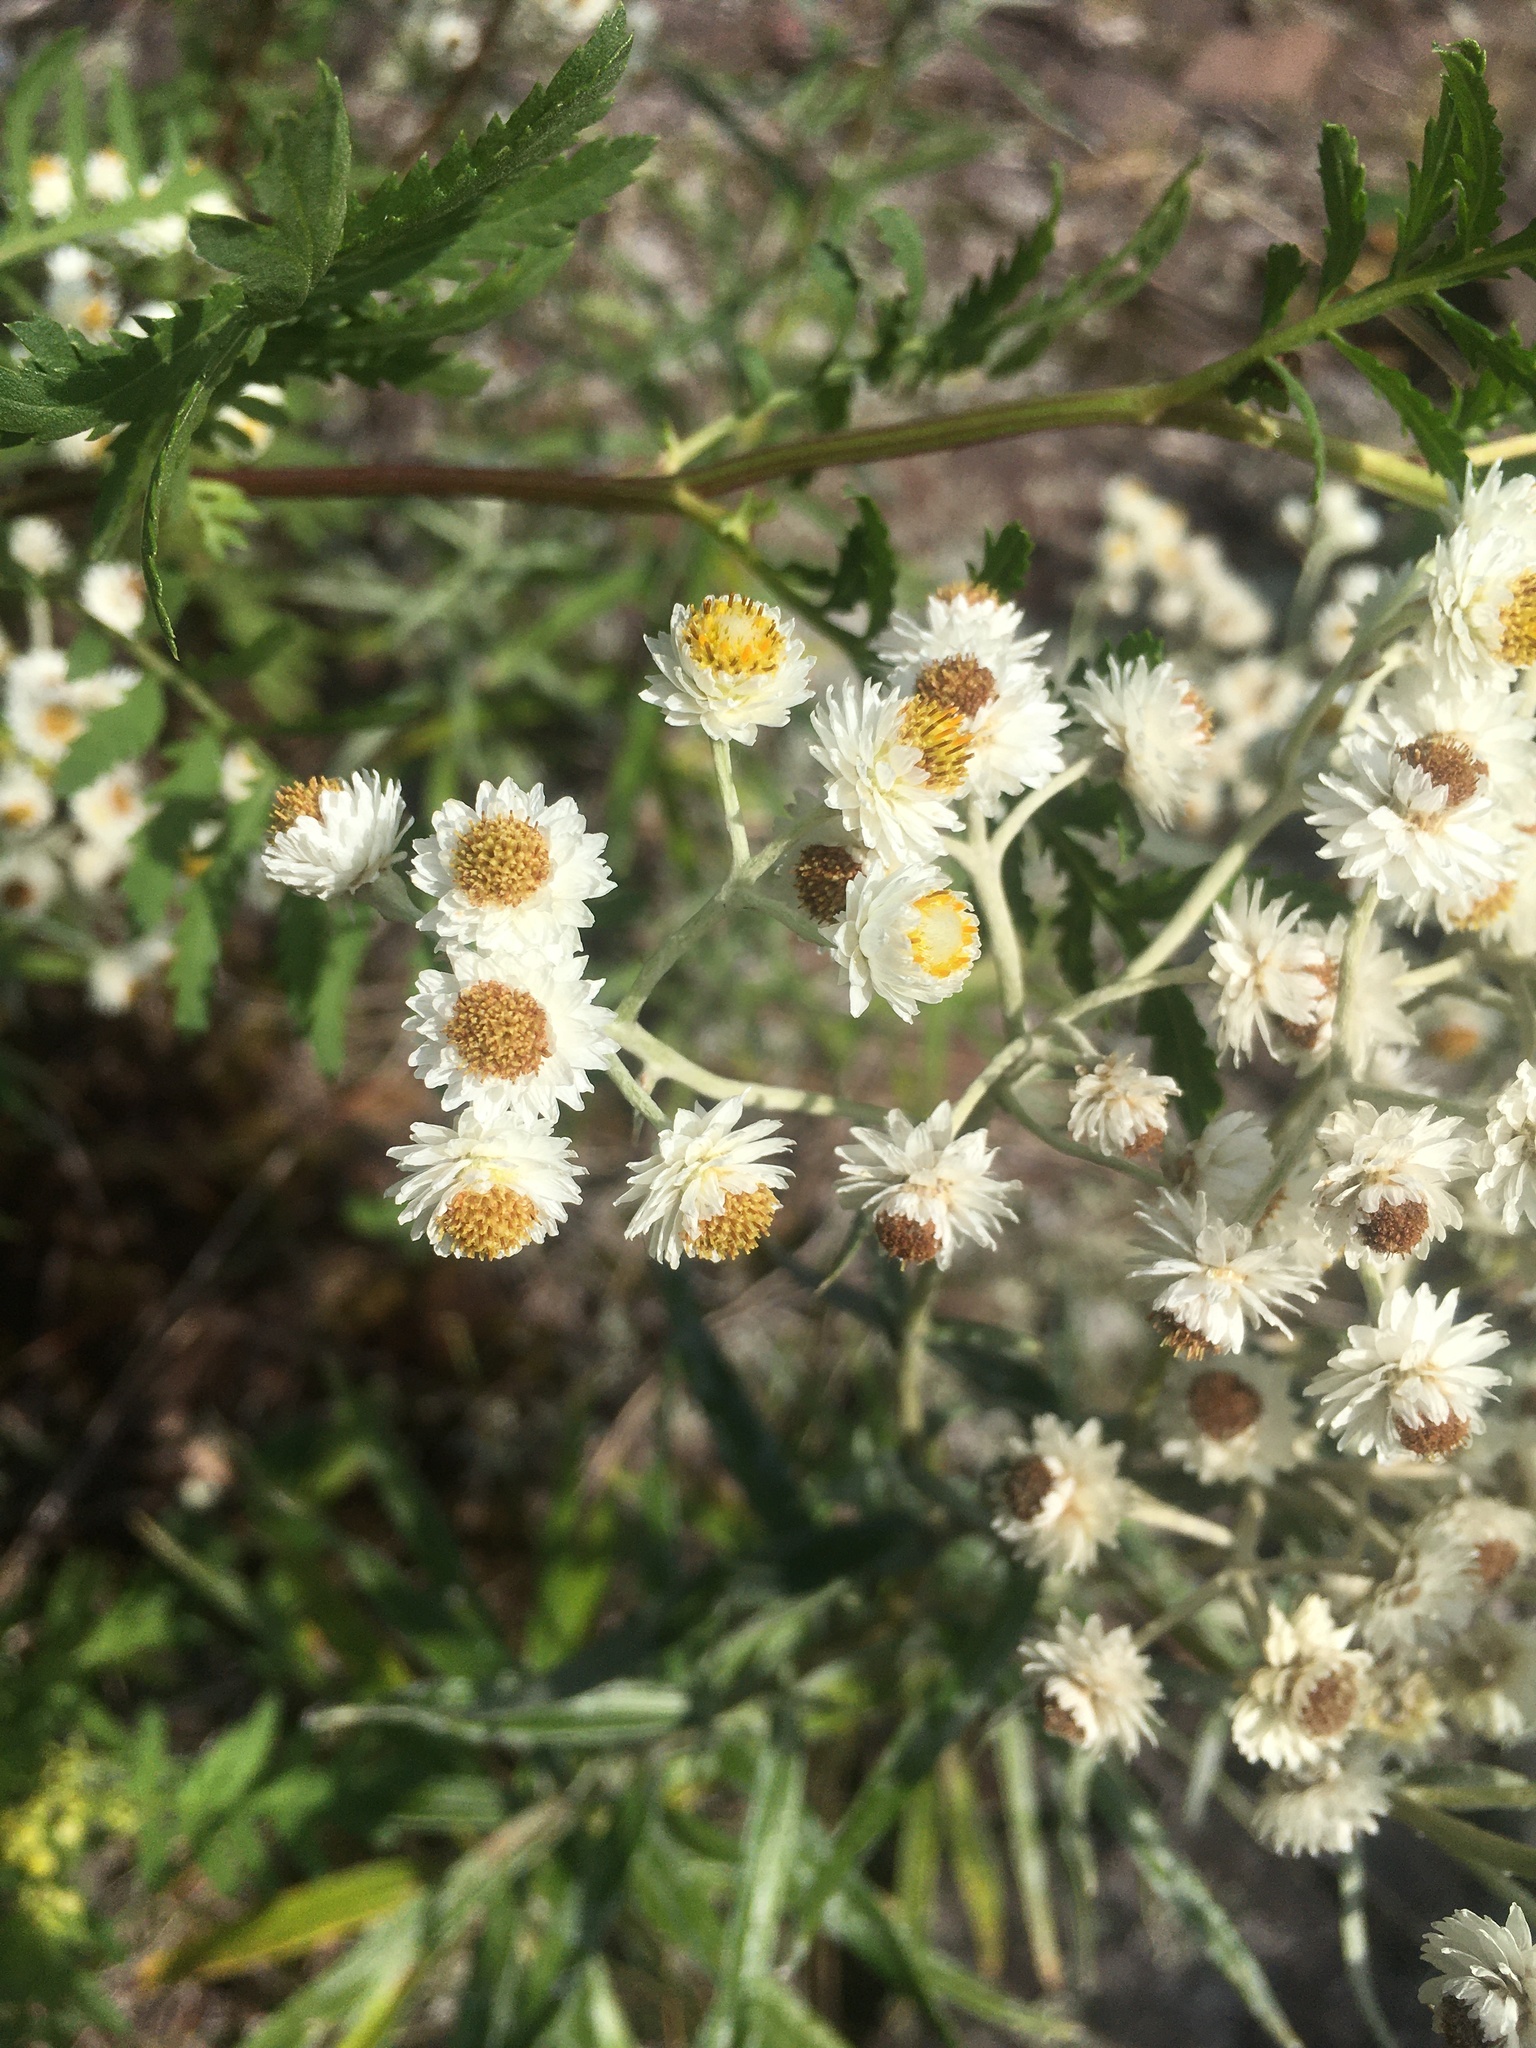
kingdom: Plantae
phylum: Tracheophyta
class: Magnoliopsida
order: Asterales
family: Asteraceae
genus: Anaphalis
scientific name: Anaphalis margaritacea
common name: Pearly everlasting
